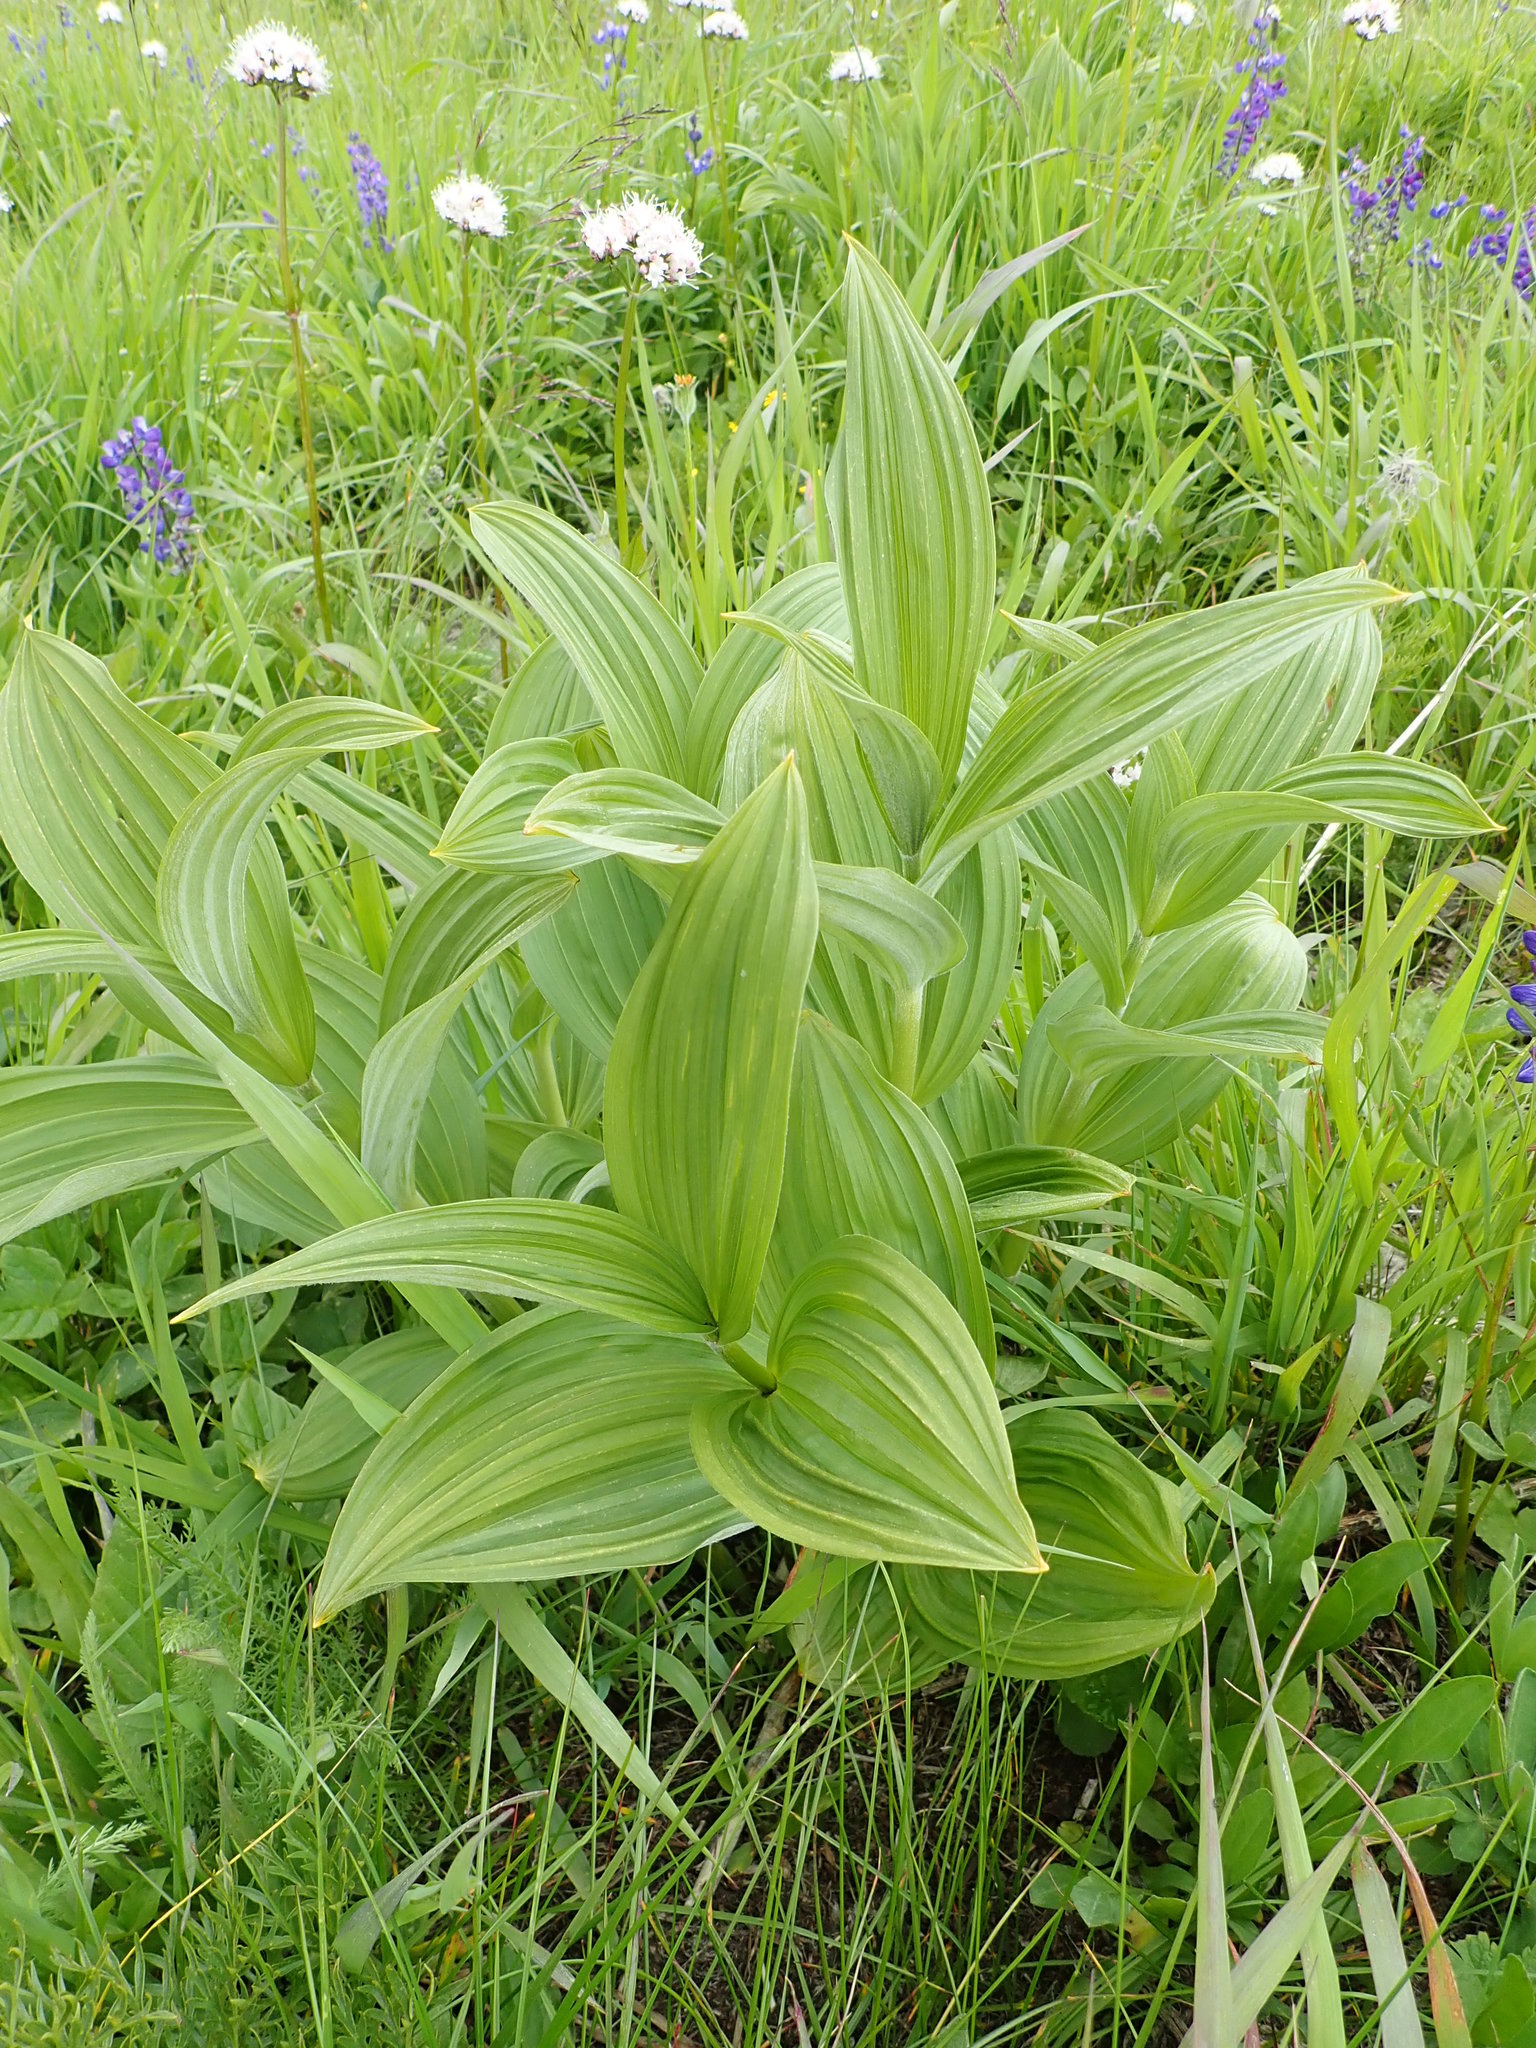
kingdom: Plantae
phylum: Tracheophyta
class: Liliopsida
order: Liliales
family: Melanthiaceae
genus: Veratrum
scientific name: Veratrum viride
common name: American false hellebore
